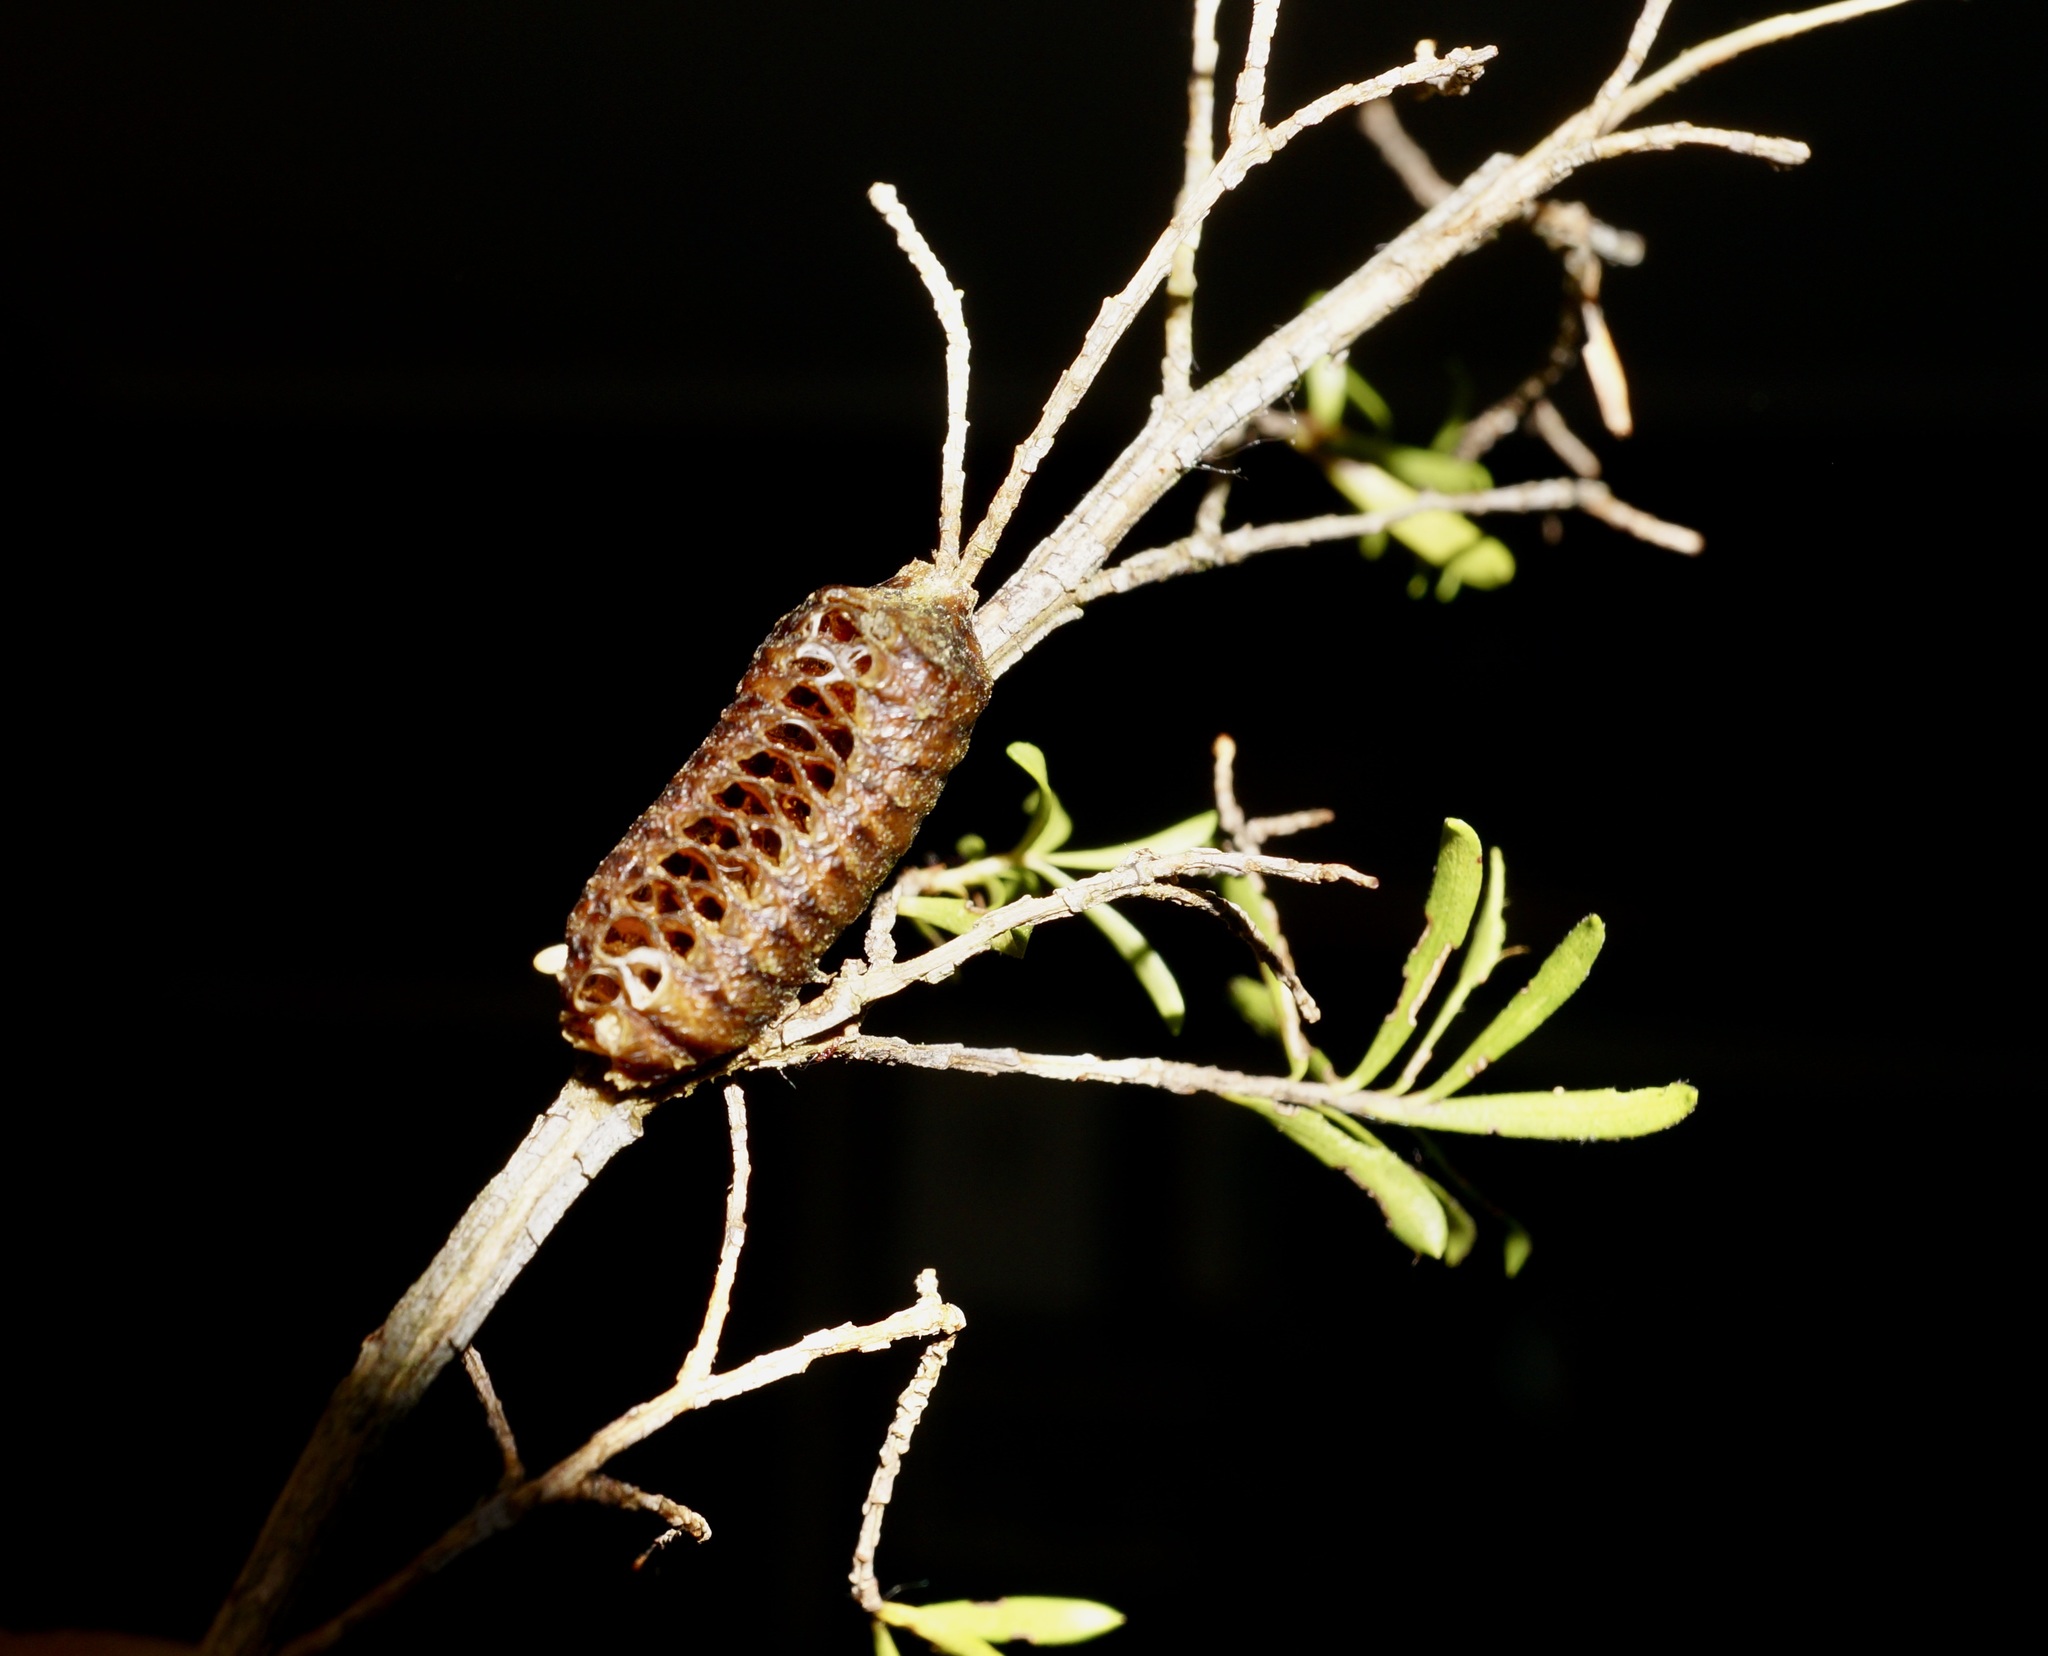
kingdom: Animalia
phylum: Arthropoda
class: Insecta
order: Mantodea
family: Mantidae
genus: Orthodera
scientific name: Orthodera novaezealandiae
